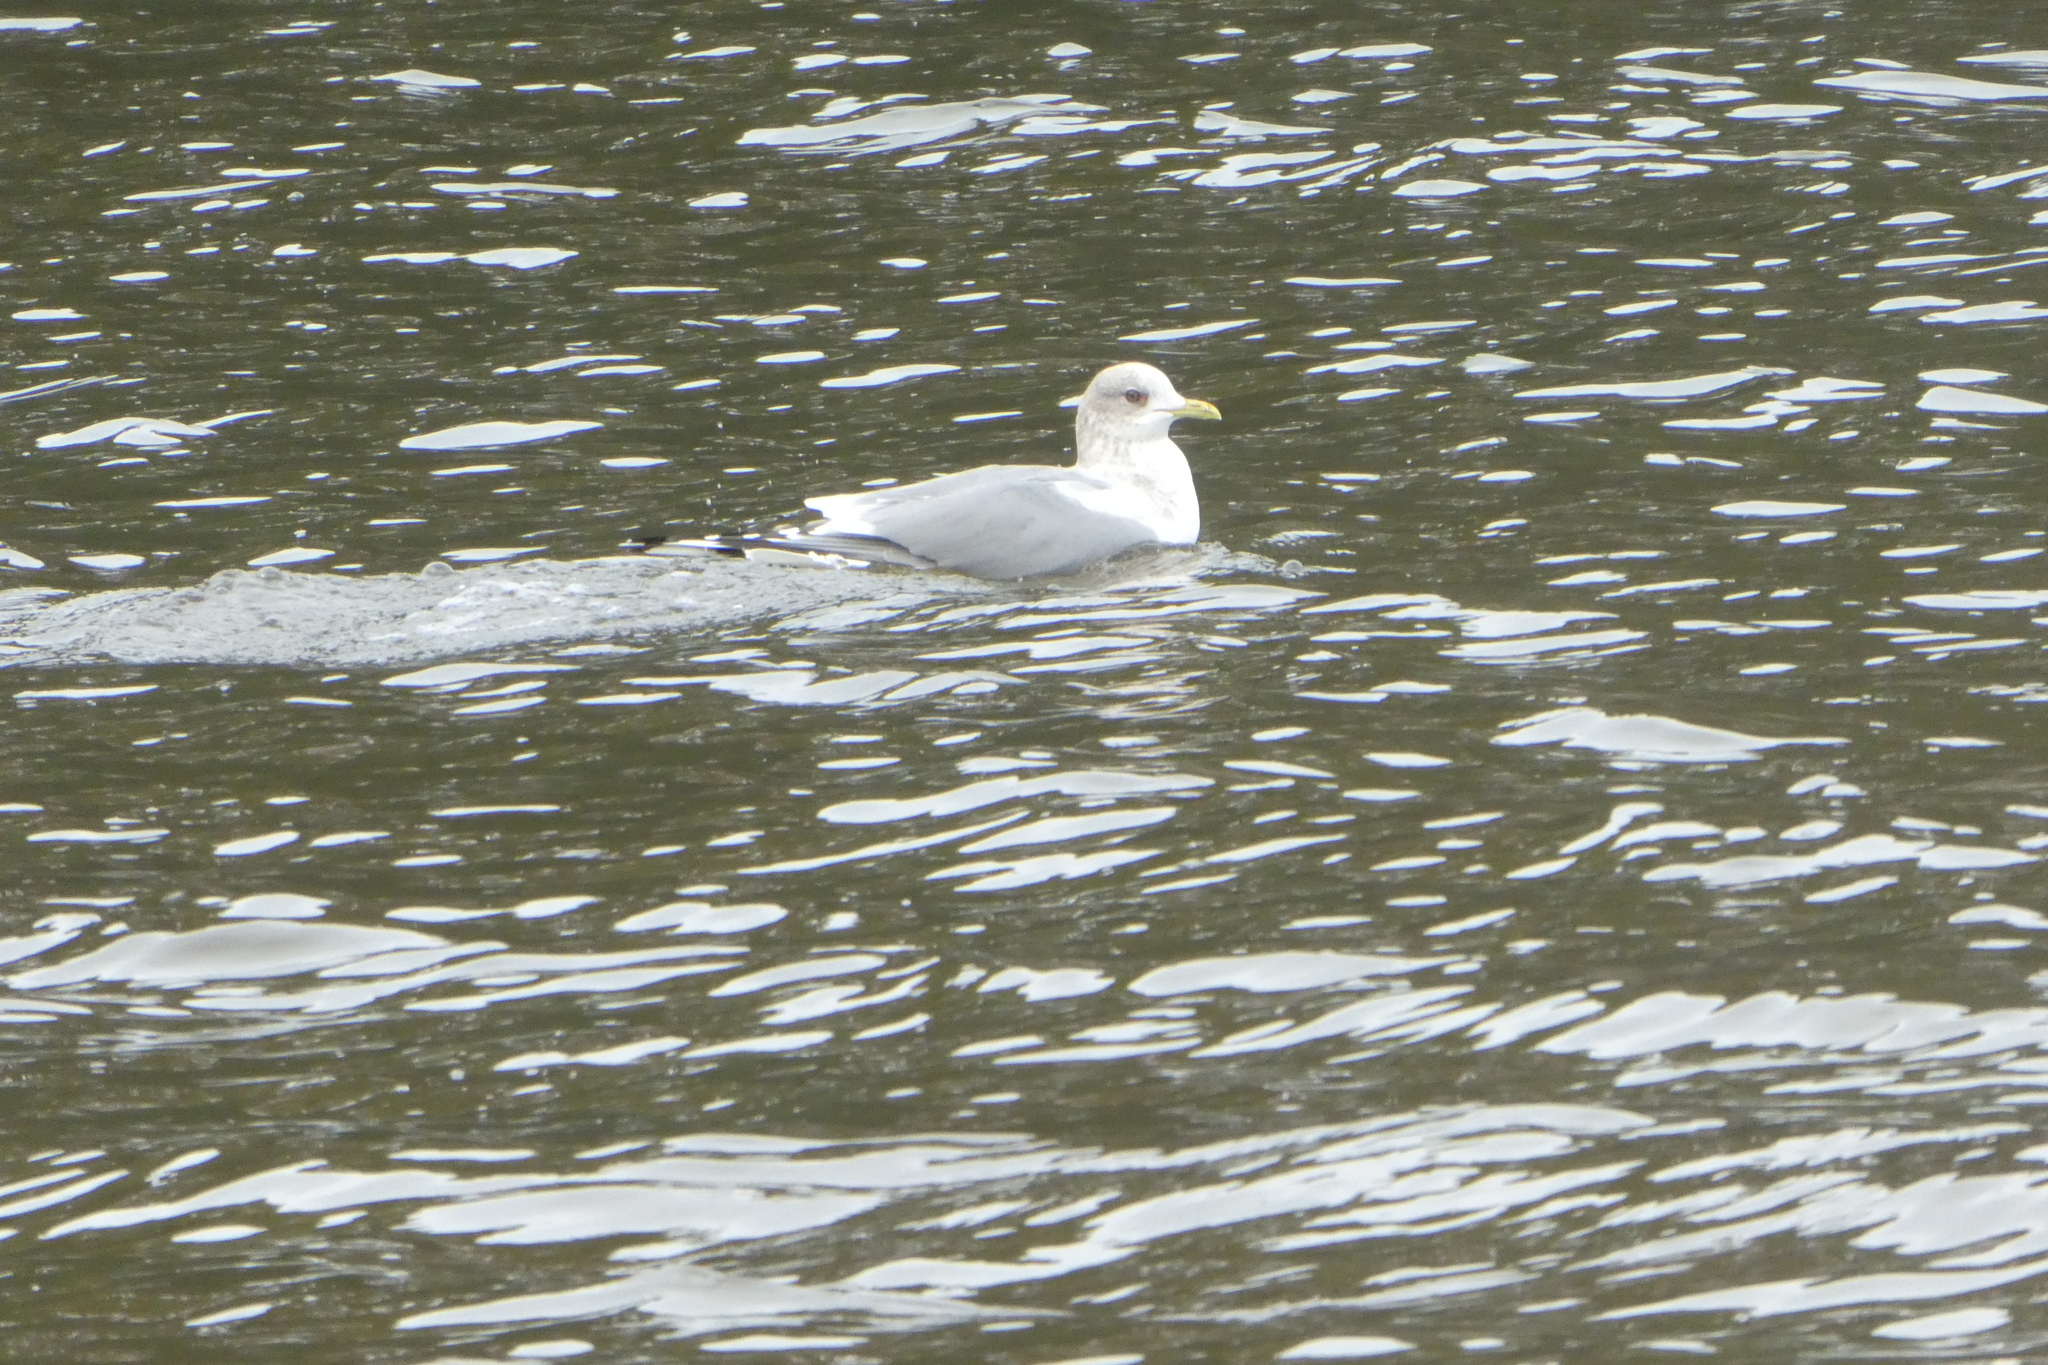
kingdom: Animalia
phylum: Chordata
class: Aves
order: Charadriiformes
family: Laridae
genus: Larus
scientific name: Larus brachyrhynchus
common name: Short-billed gull
